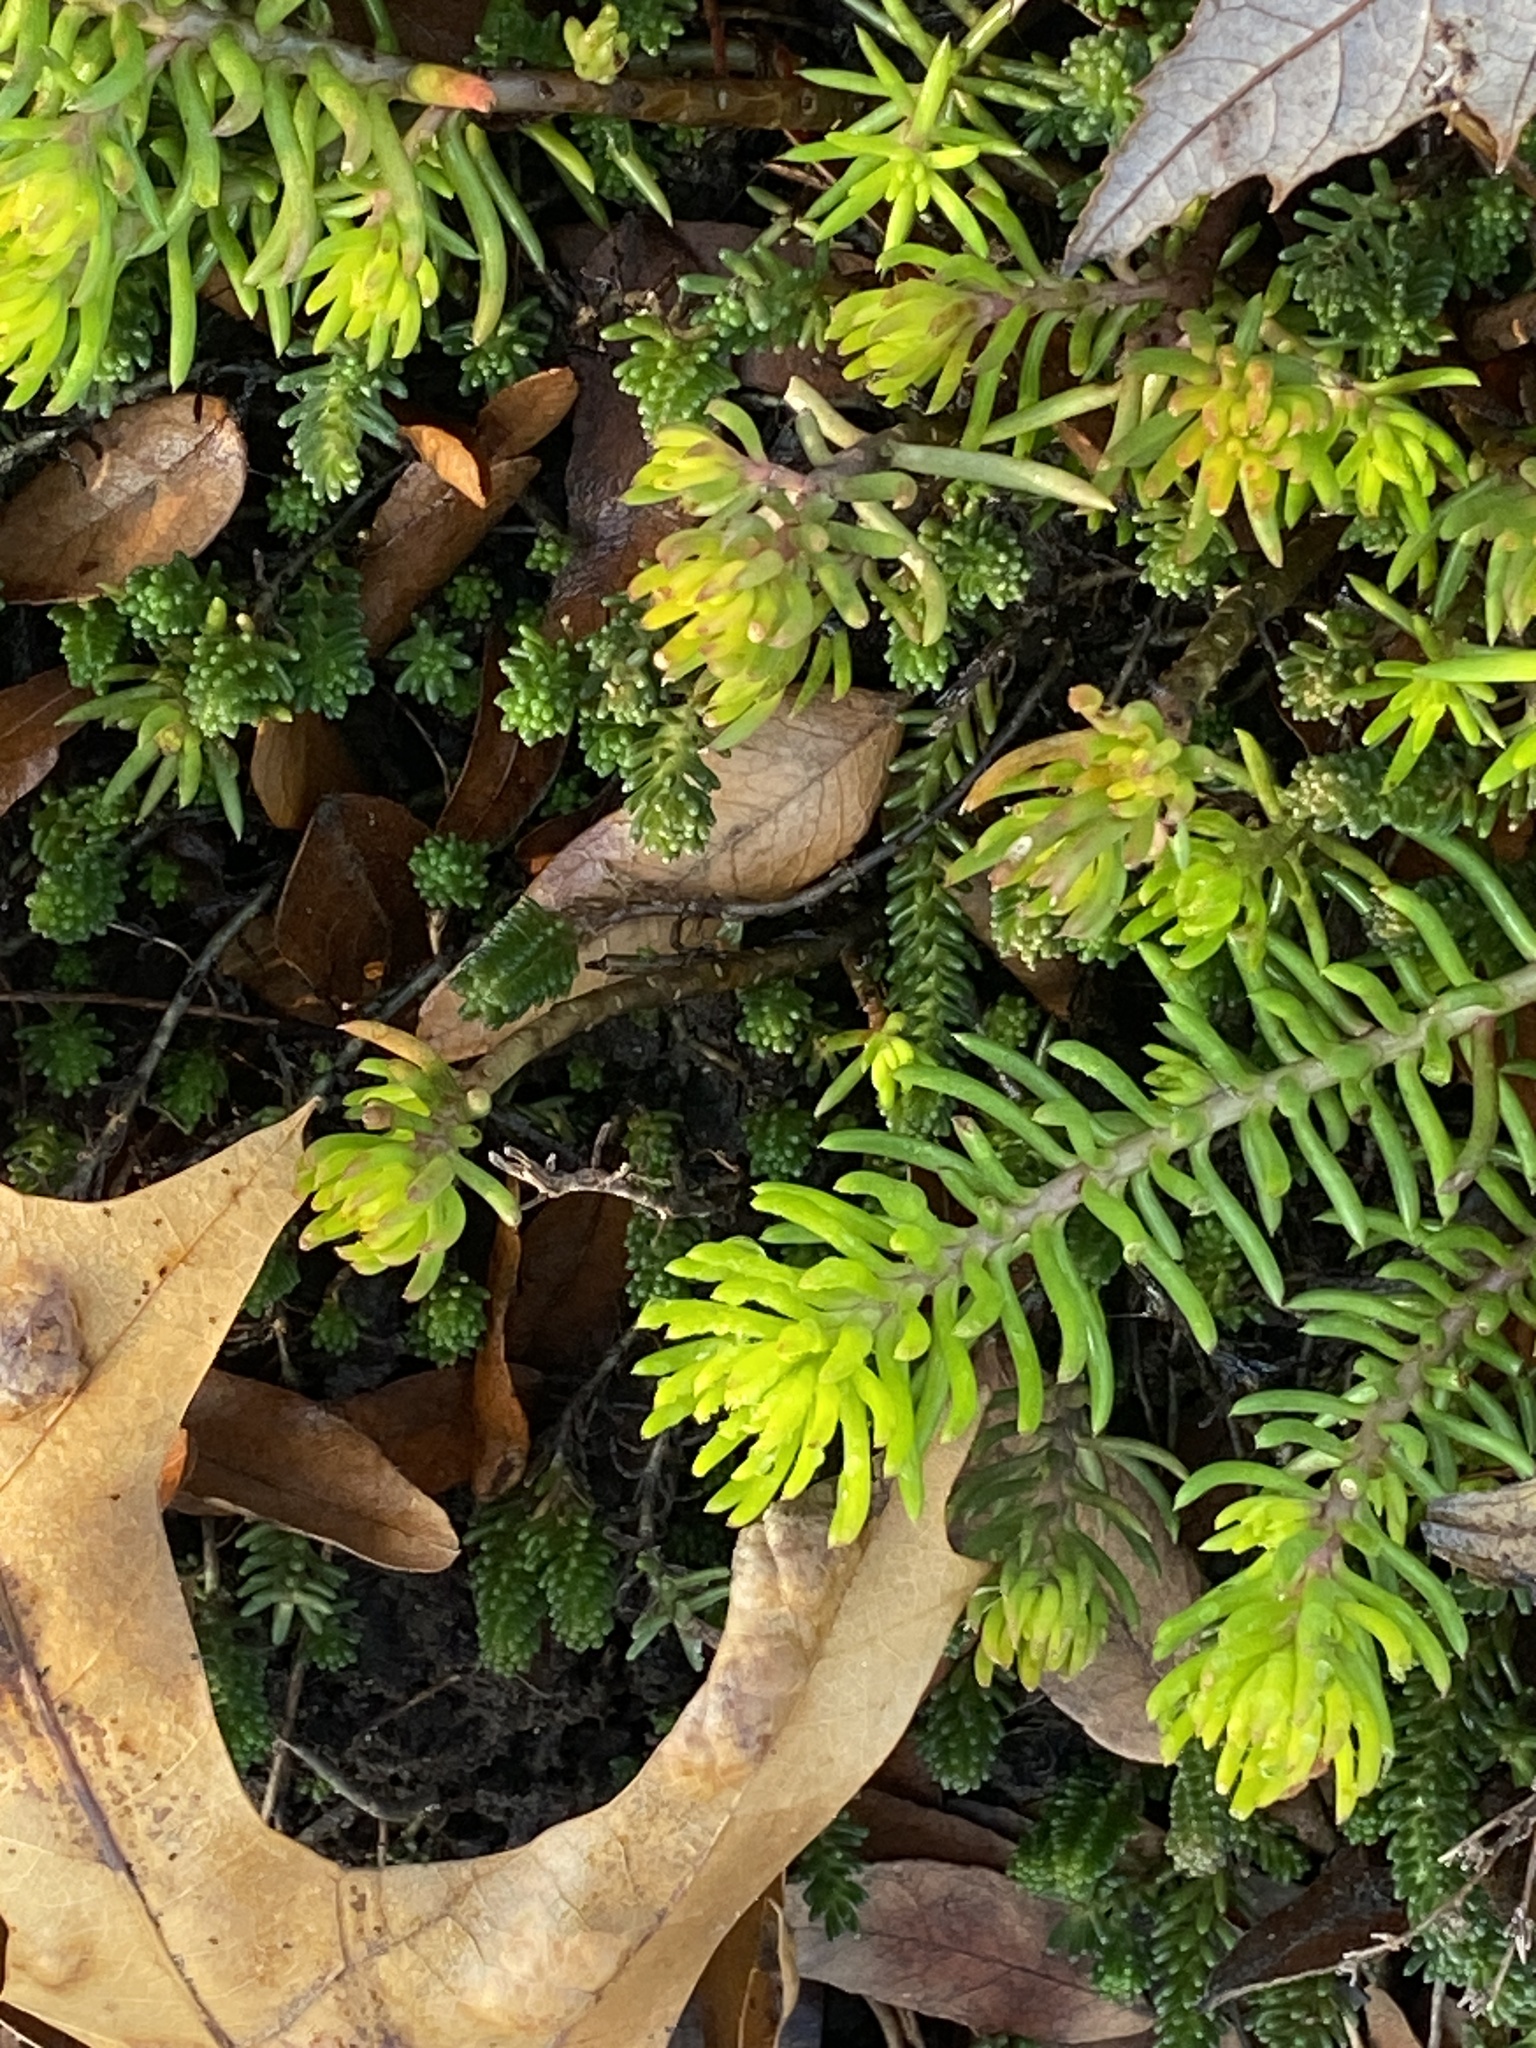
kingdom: Plantae
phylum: Tracheophyta
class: Magnoliopsida
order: Saxifragales
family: Crassulaceae
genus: Petrosedum
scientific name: Petrosedum rupestre
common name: Jenny's stonecrop
